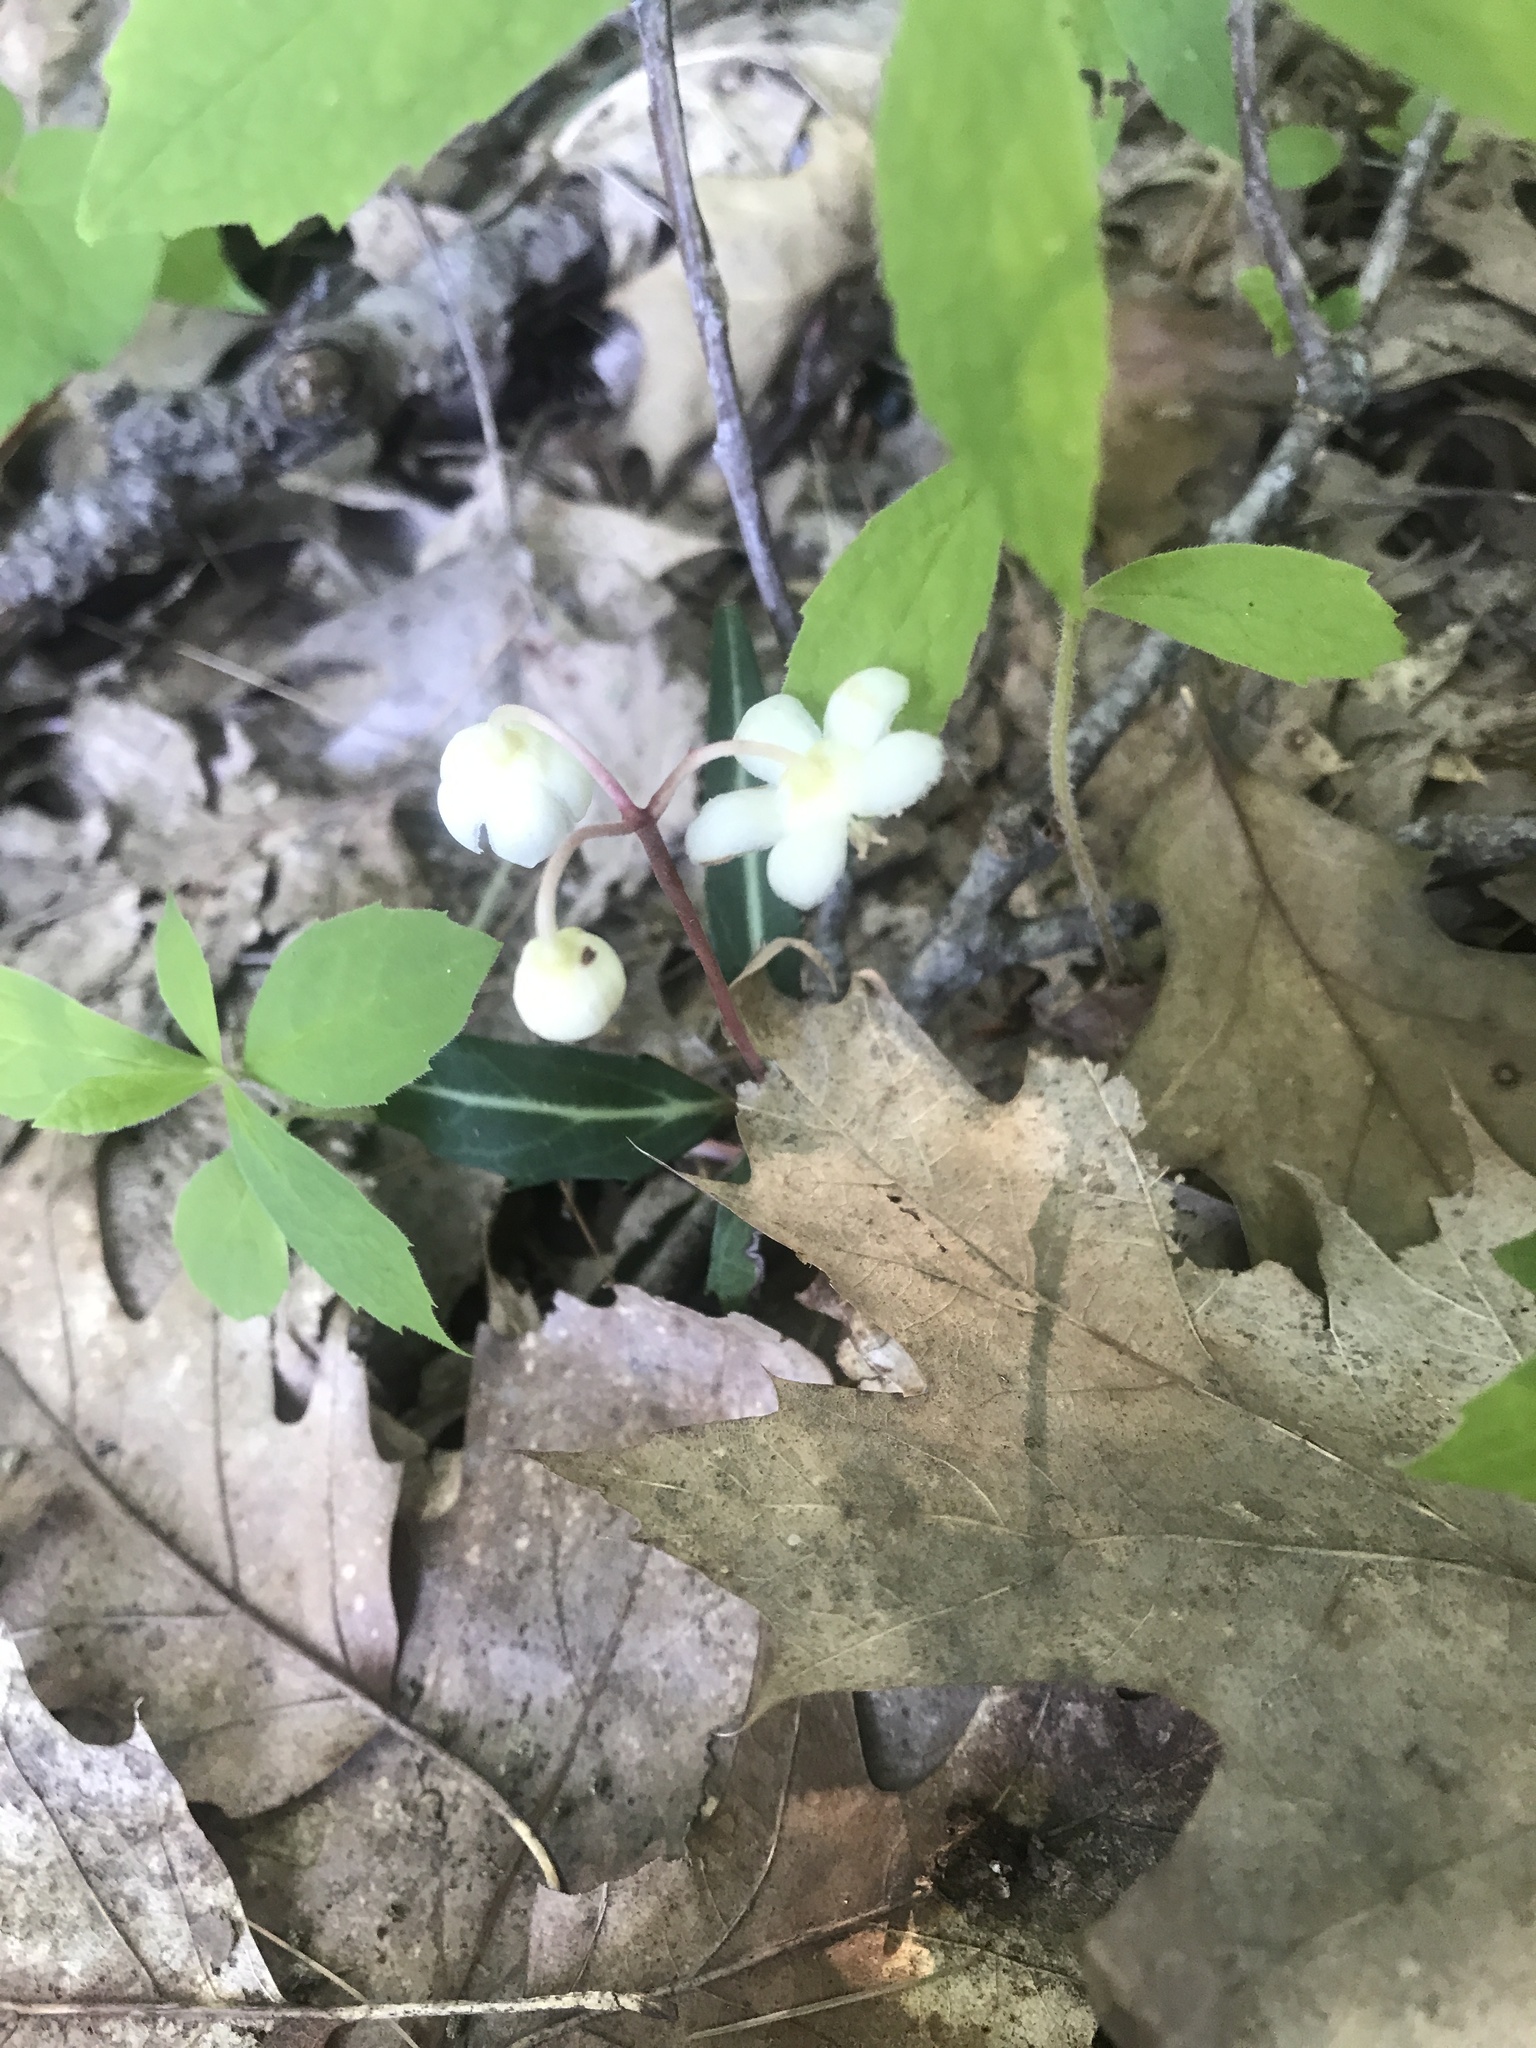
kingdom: Plantae
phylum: Tracheophyta
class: Magnoliopsida
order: Ericales
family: Ericaceae
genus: Chimaphila
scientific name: Chimaphila maculata
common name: Spotted pipsissewa
